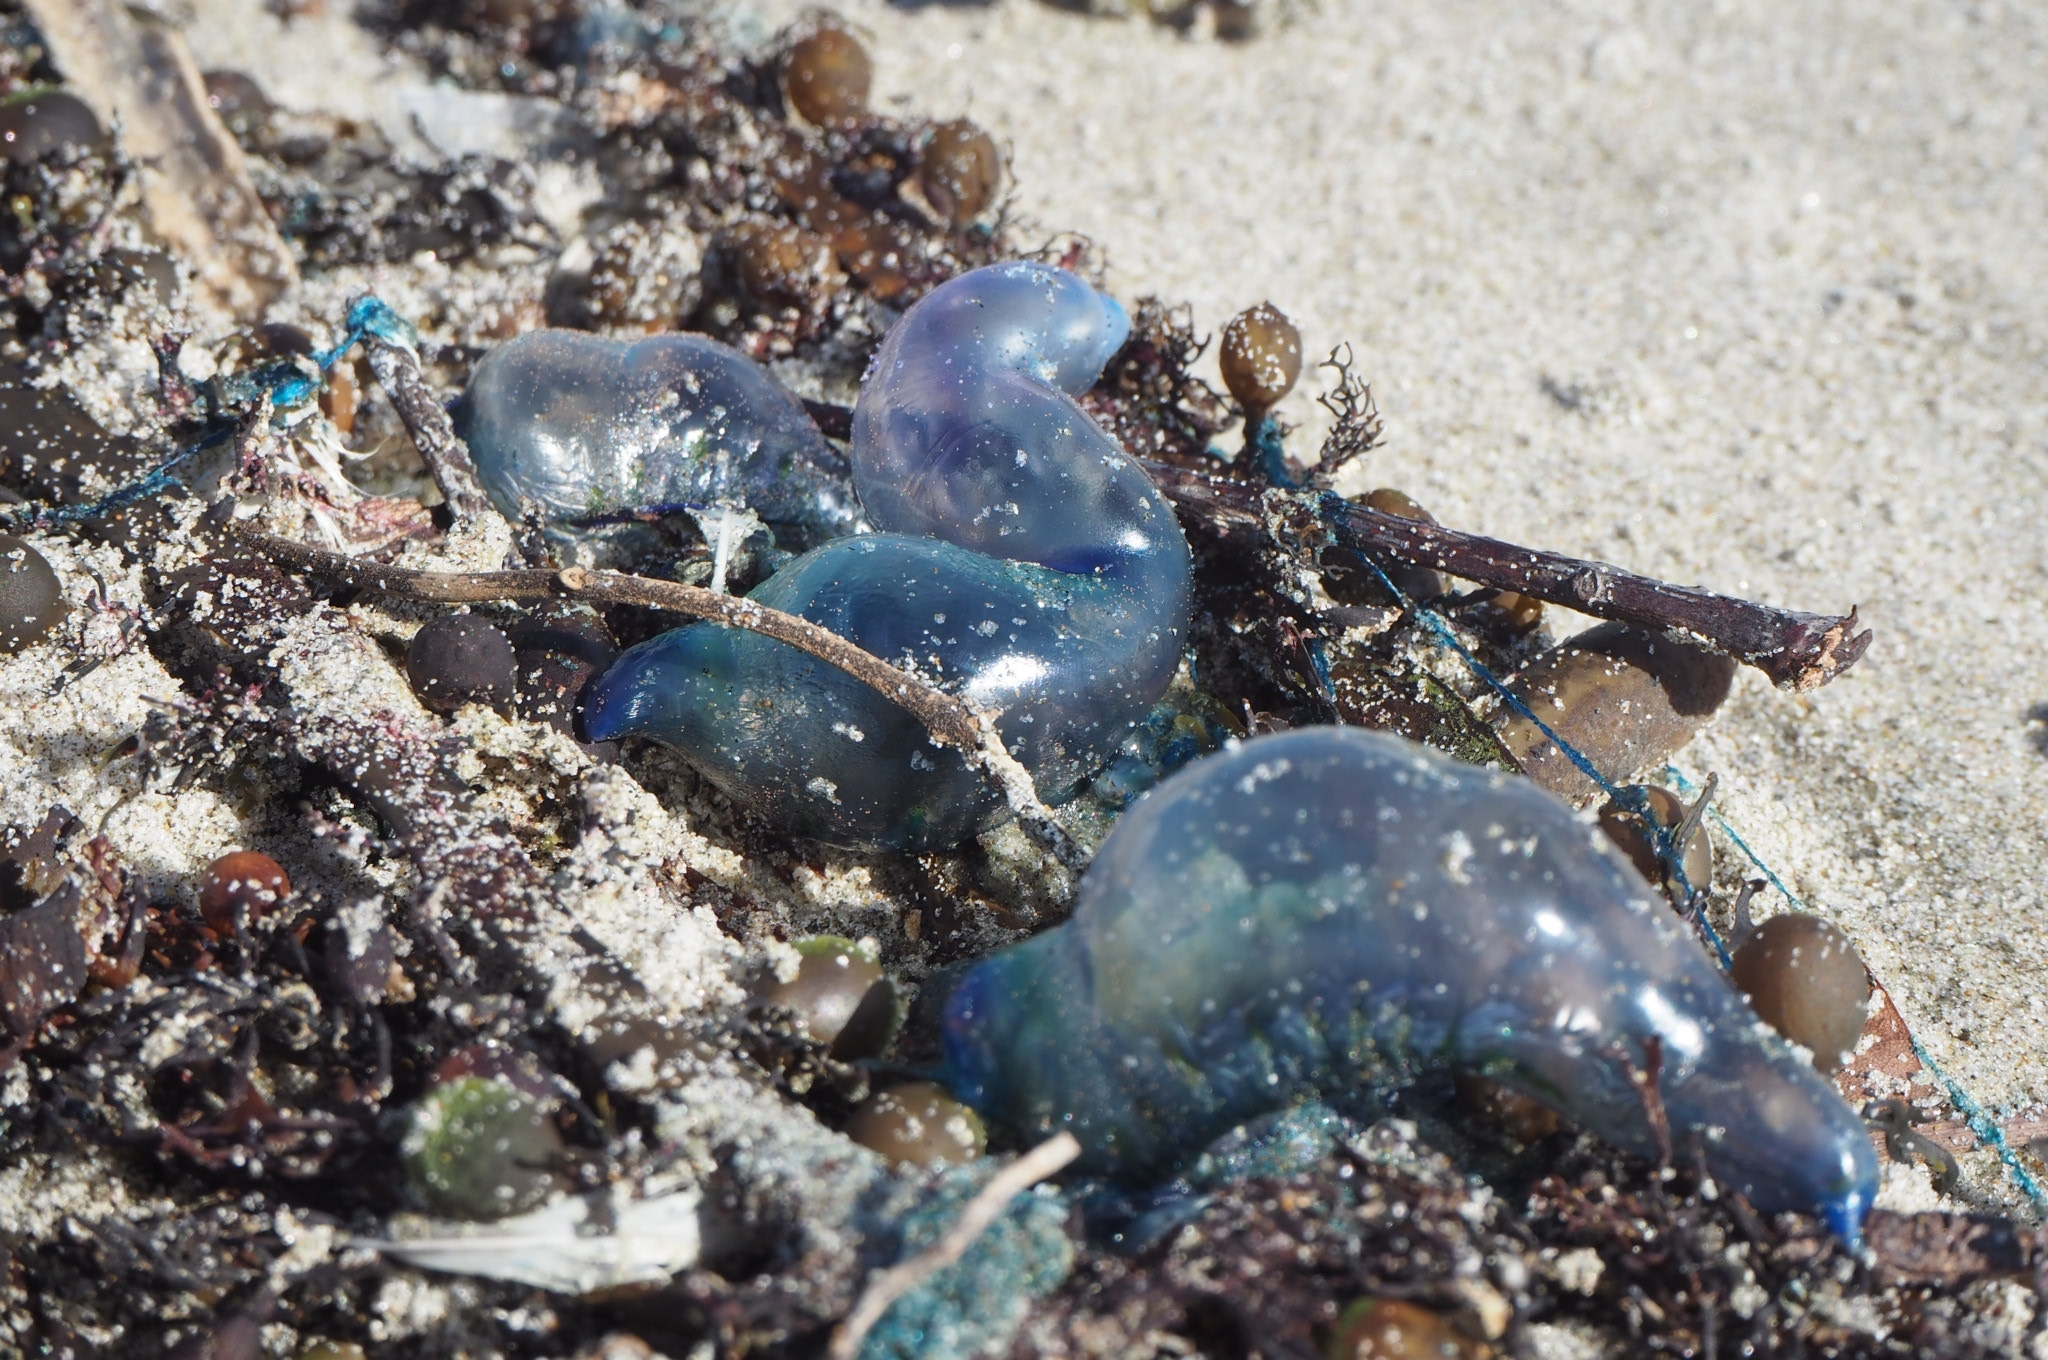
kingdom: Animalia
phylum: Cnidaria
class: Hydrozoa
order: Siphonophorae
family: Physaliidae
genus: Physalia
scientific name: Physalia physalis
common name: Portuguese man-of-war
